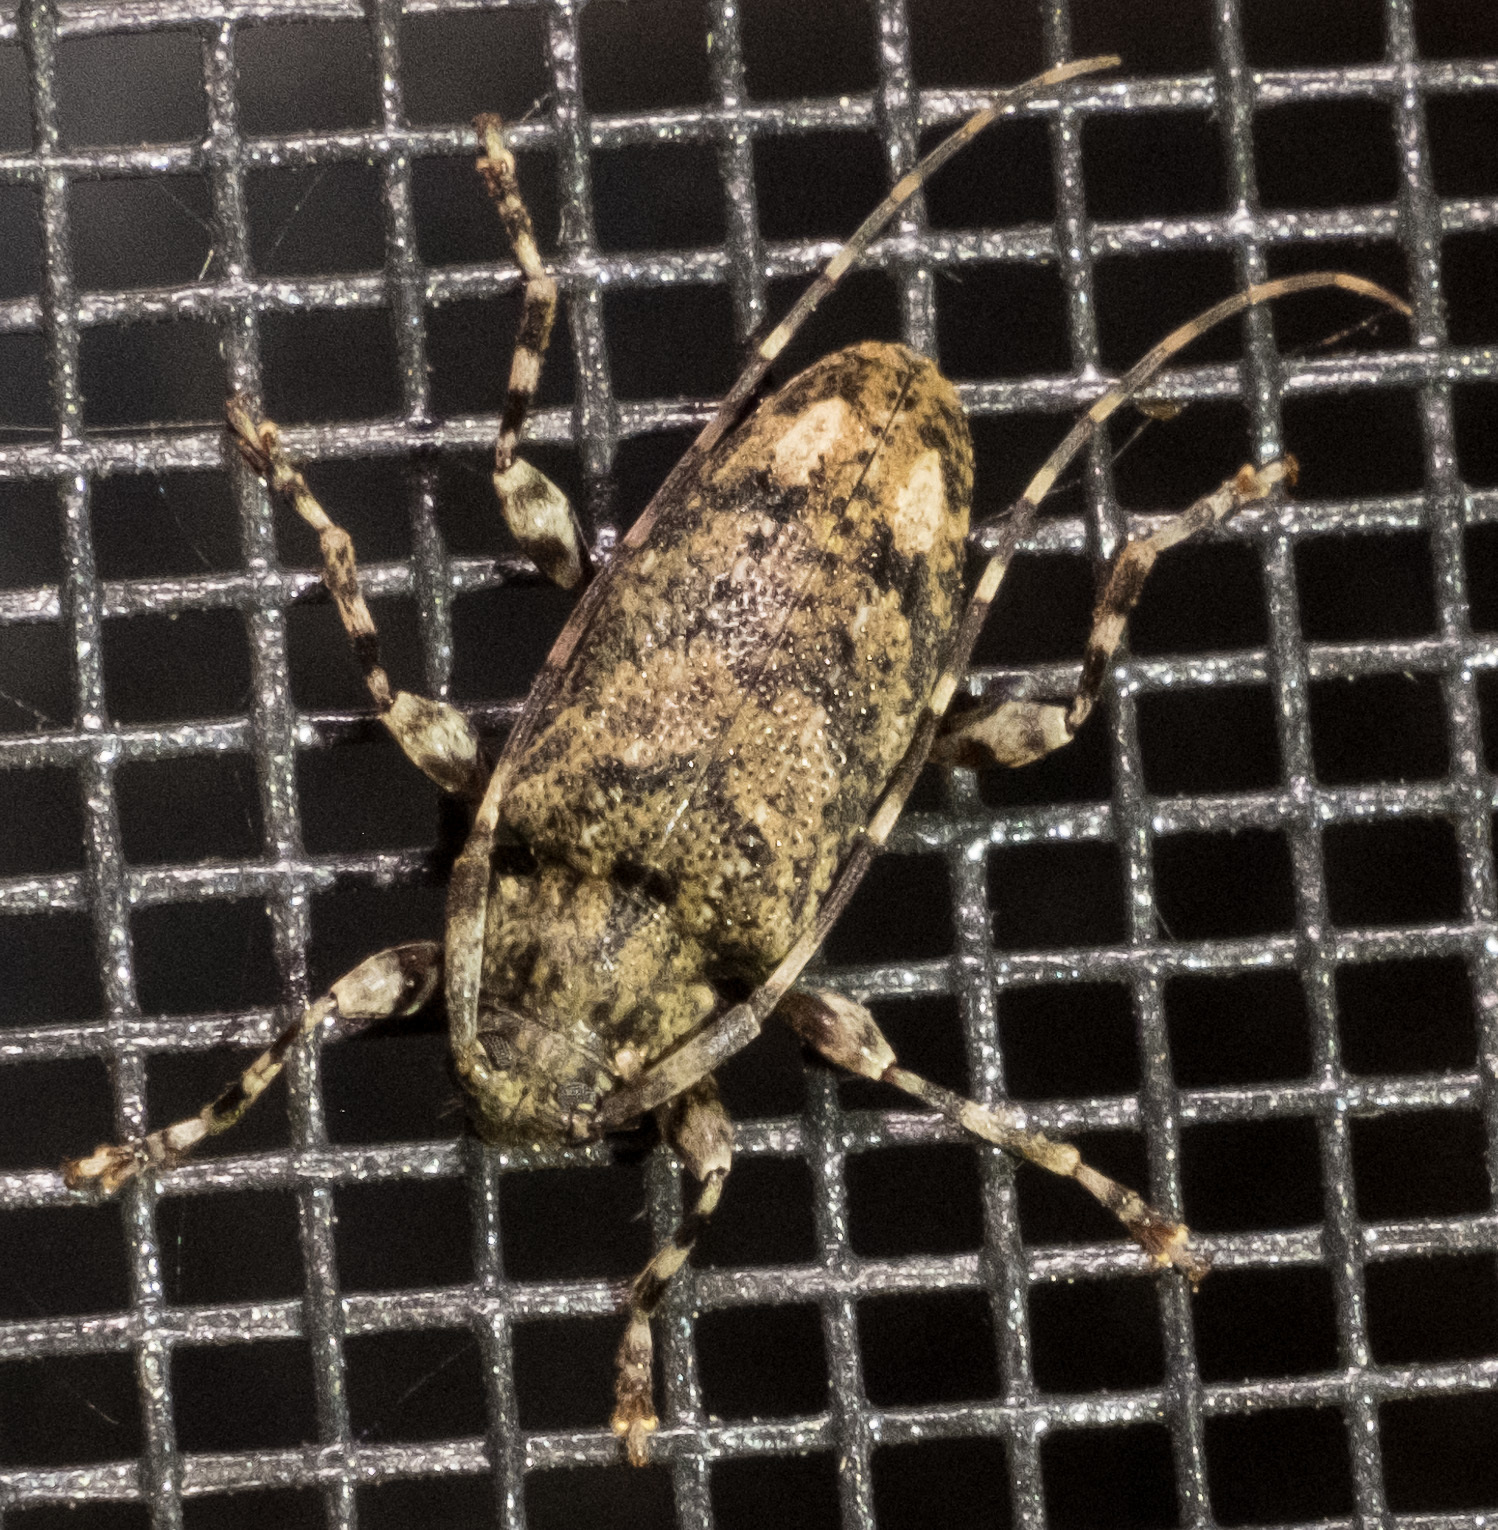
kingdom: Animalia
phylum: Arthropoda
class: Insecta
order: Coleoptera
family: Cerambycidae
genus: Astyleiopus
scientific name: Astyleiopus variegatus
